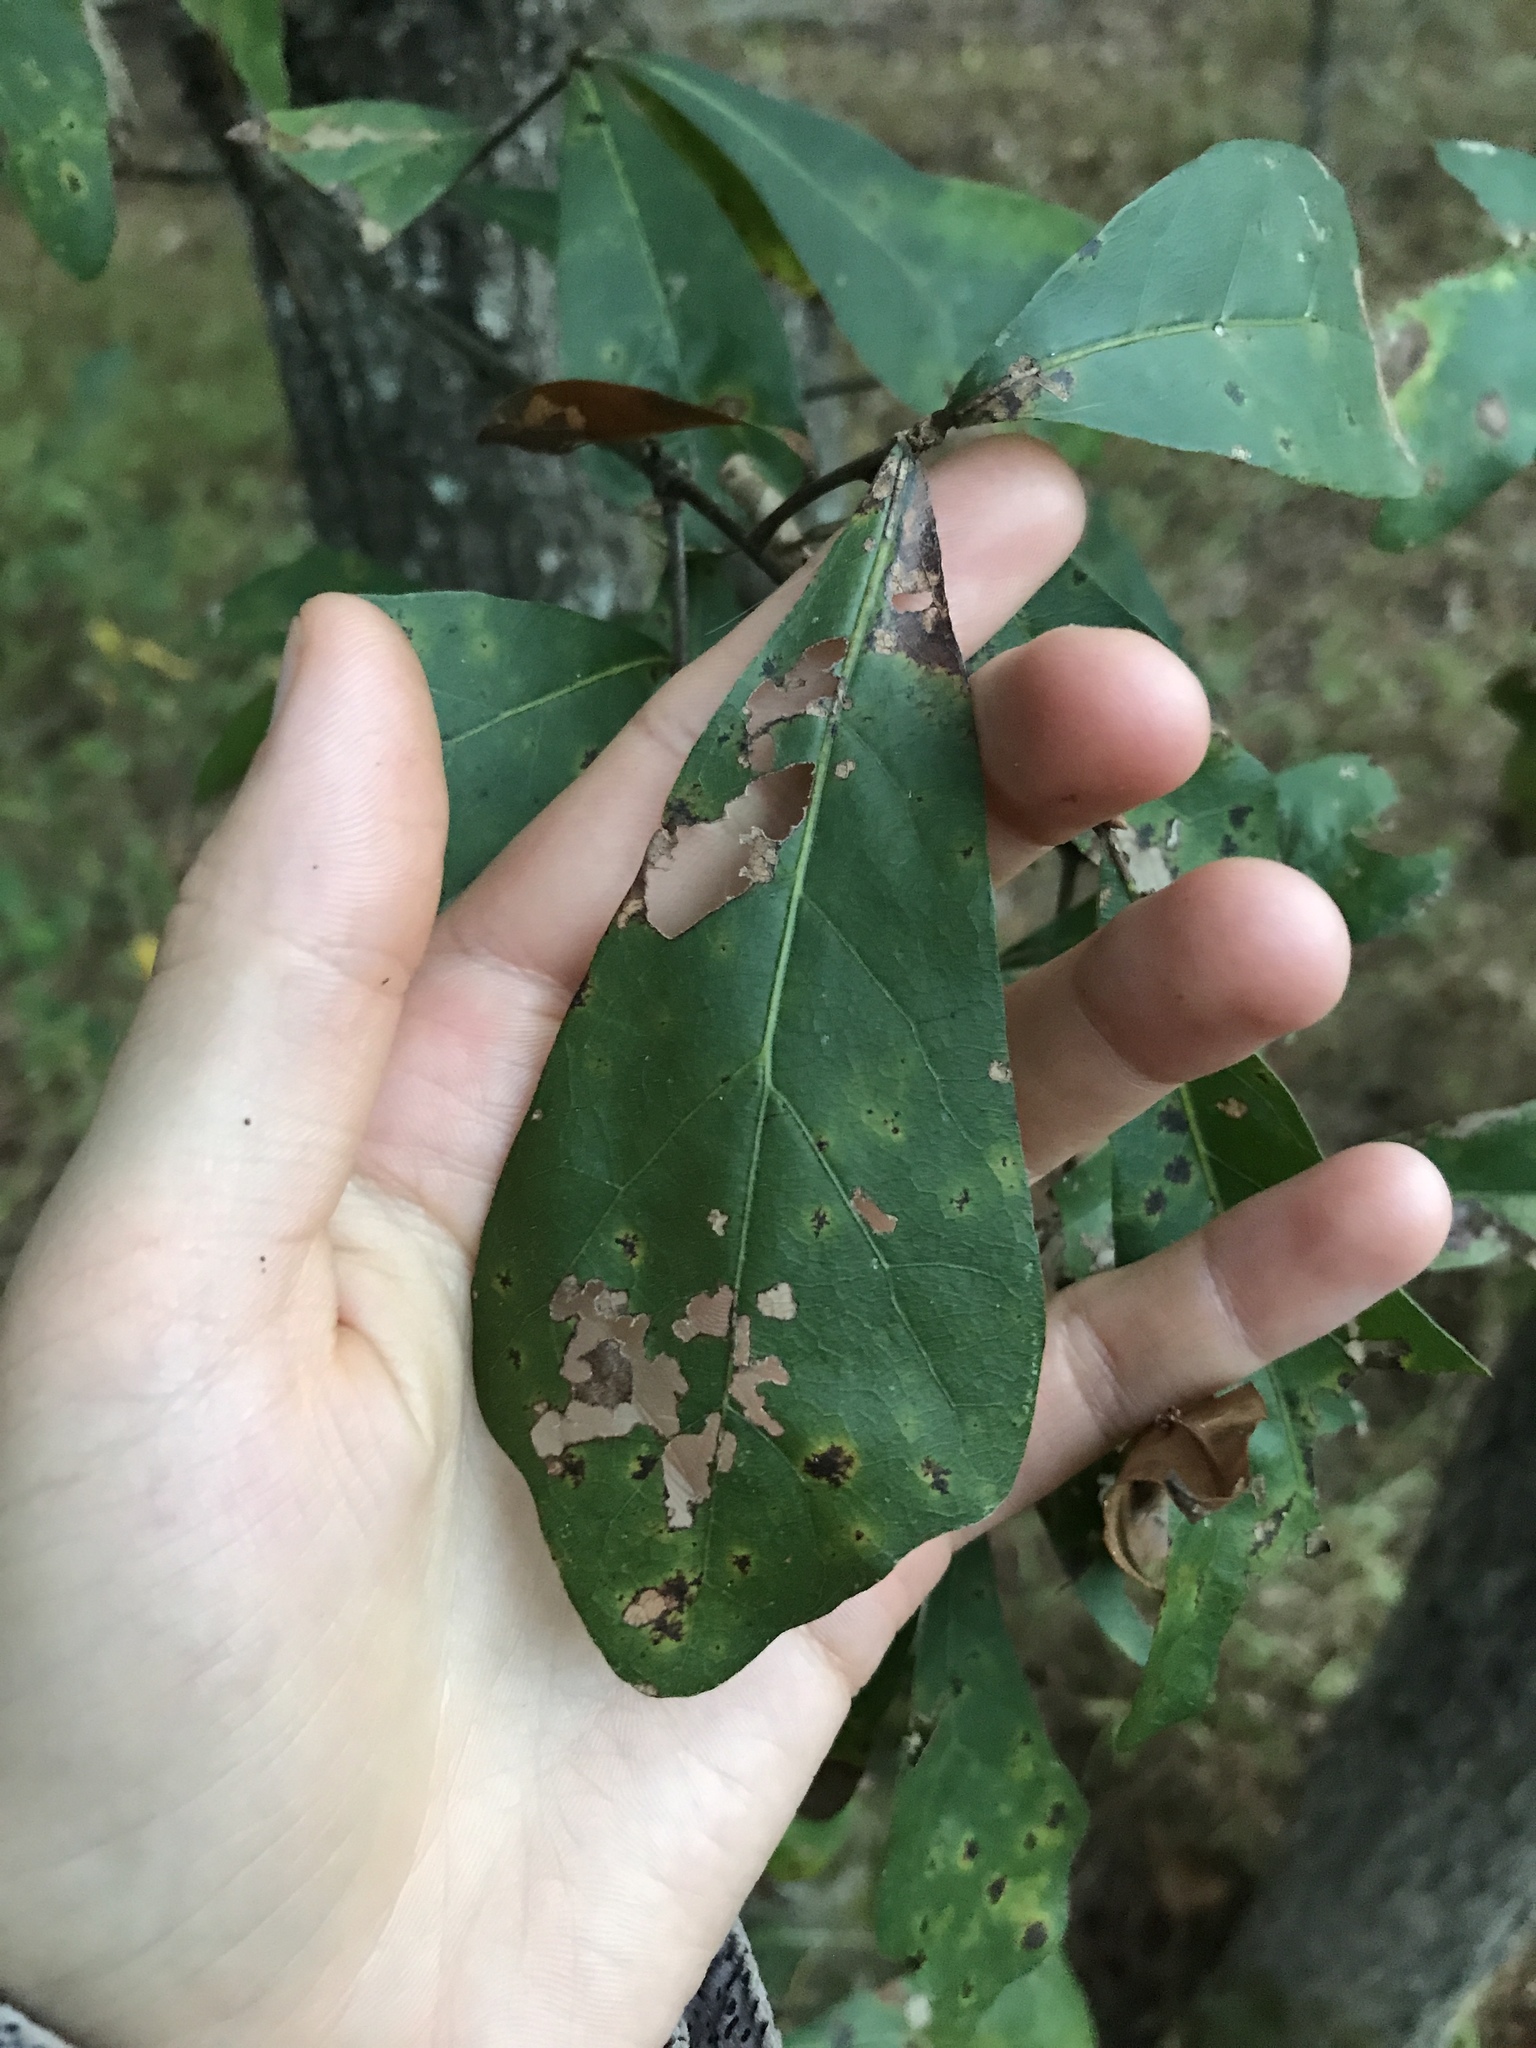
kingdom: Plantae
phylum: Tracheophyta
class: Magnoliopsida
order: Fagales
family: Fagaceae
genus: Quercus
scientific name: Quercus nigra
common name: Water oak
